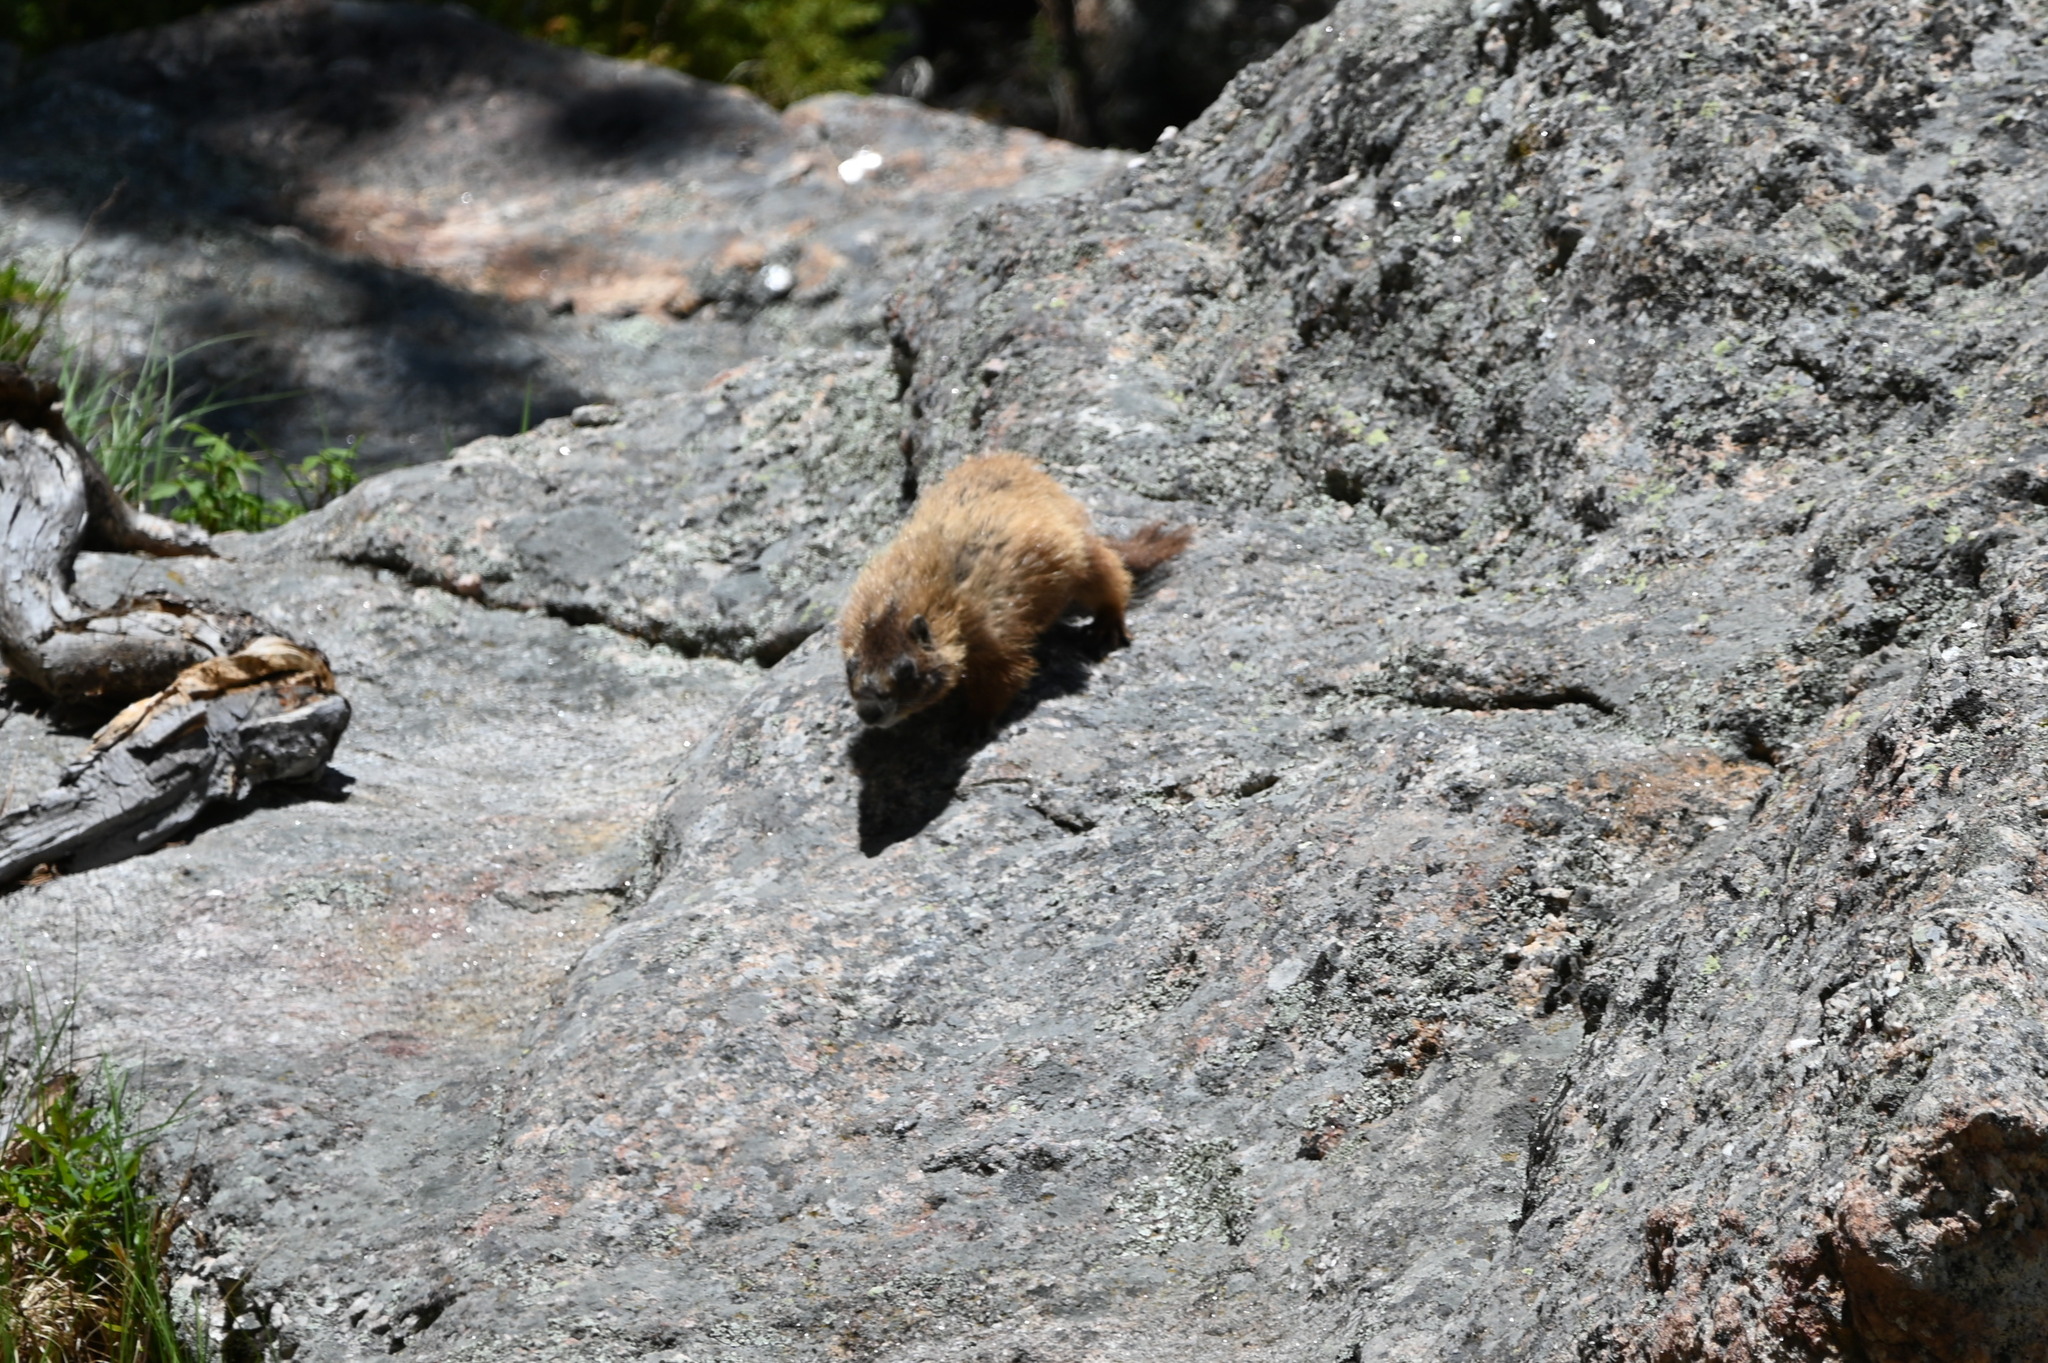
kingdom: Animalia
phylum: Chordata
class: Mammalia
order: Rodentia
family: Sciuridae
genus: Marmota
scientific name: Marmota flaviventris
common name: Yellow-bellied marmot
